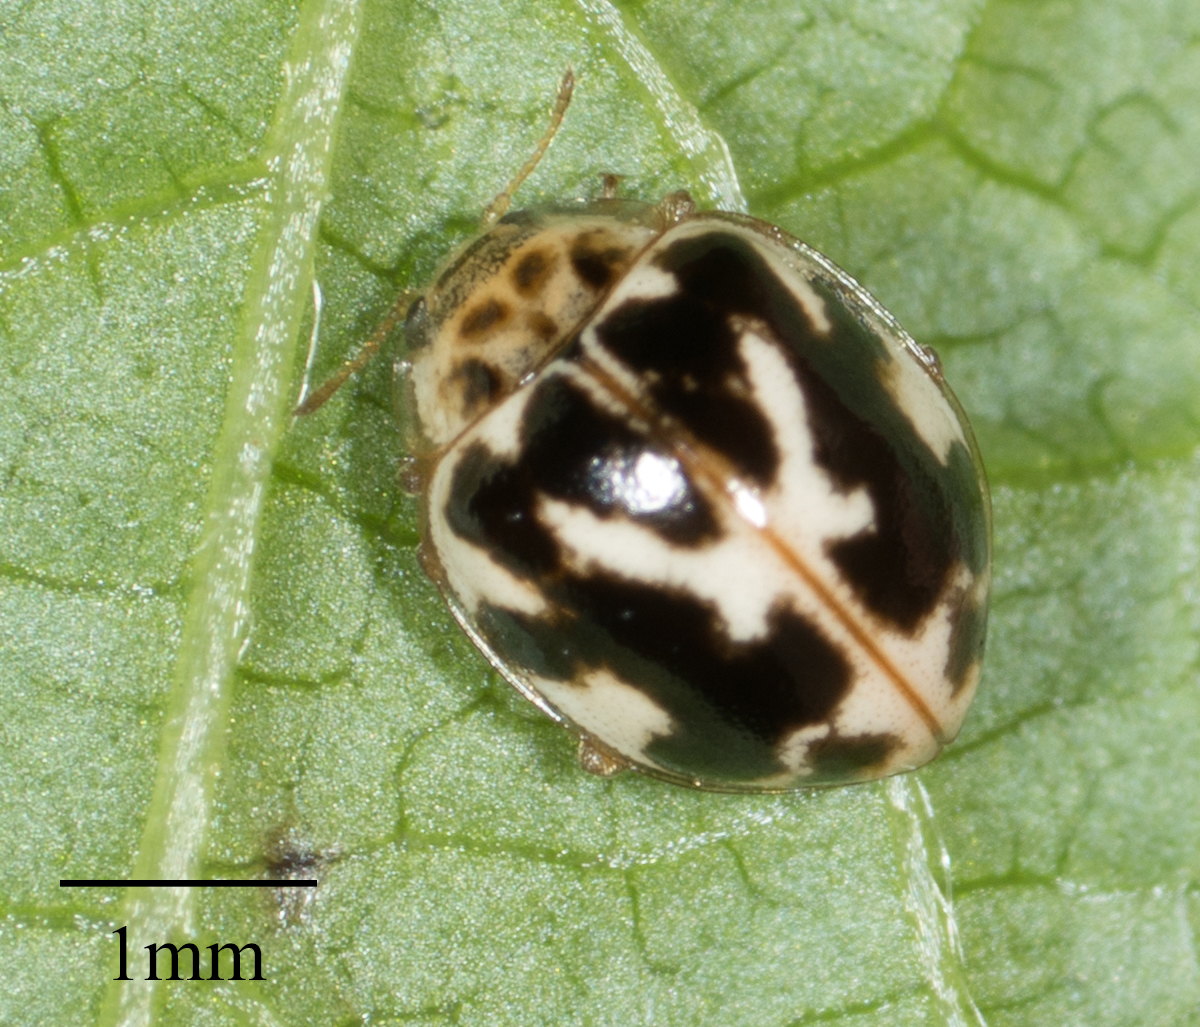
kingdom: Animalia
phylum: Arthropoda
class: Insecta
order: Coleoptera
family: Coccinellidae
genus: Psyllobora
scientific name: Psyllobora vigintimaculata
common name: Ladybird beetle
